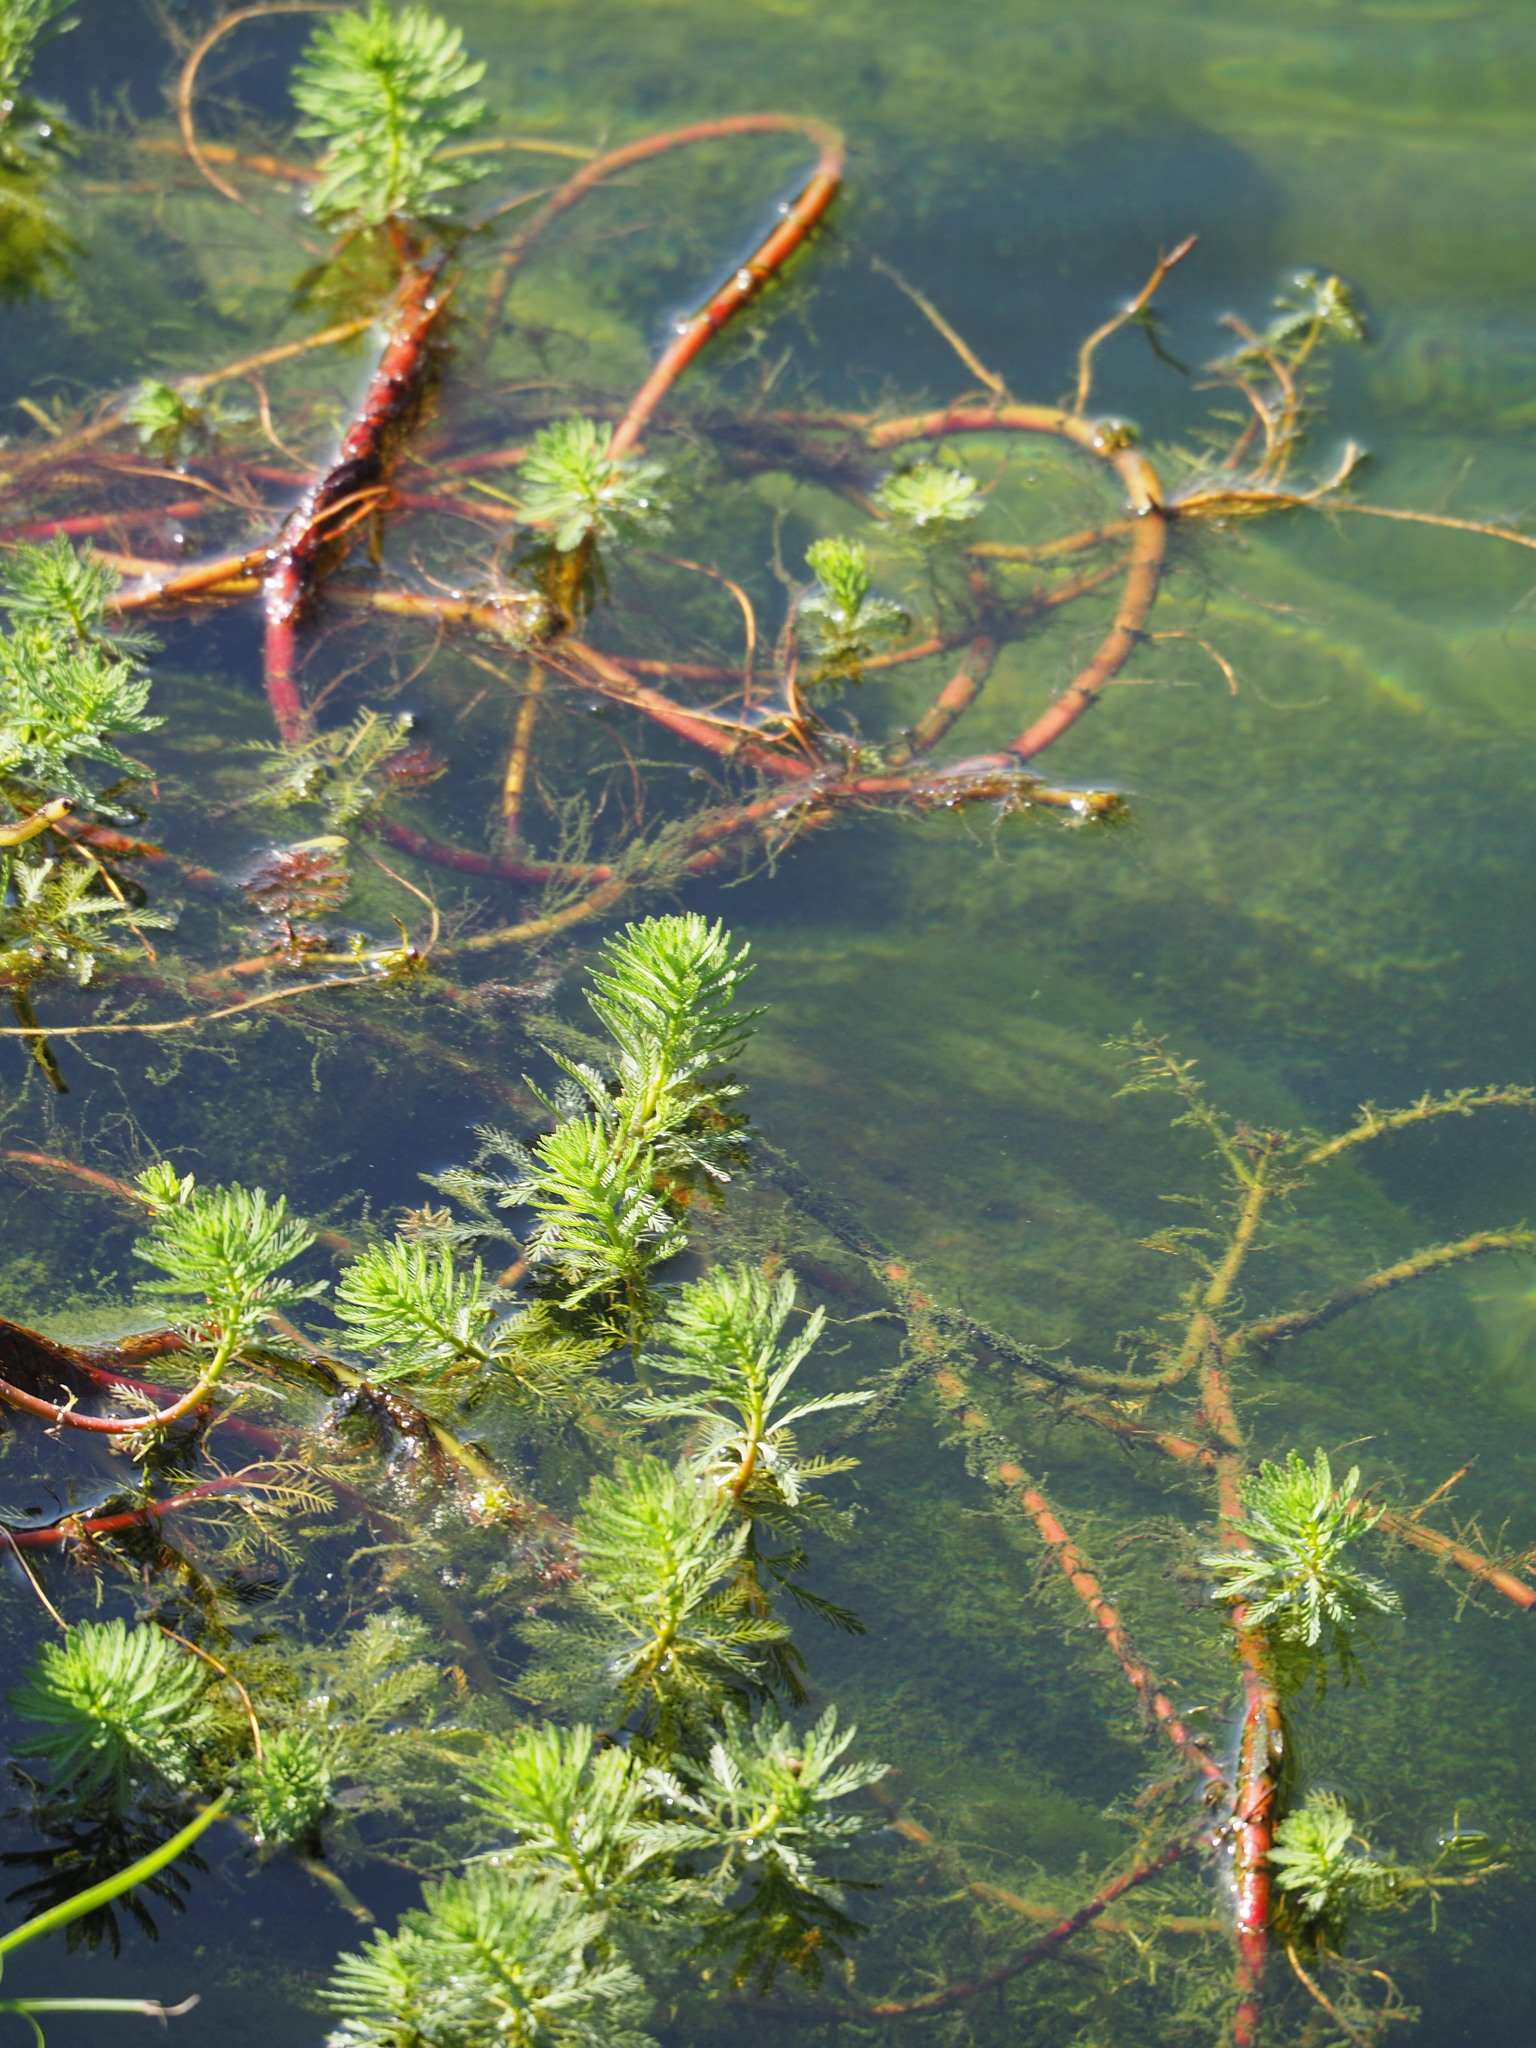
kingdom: Plantae
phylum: Tracheophyta
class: Magnoliopsida
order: Saxifragales
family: Haloragaceae
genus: Myriophyllum
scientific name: Myriophyllum aquaticum
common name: Parrot's feather
